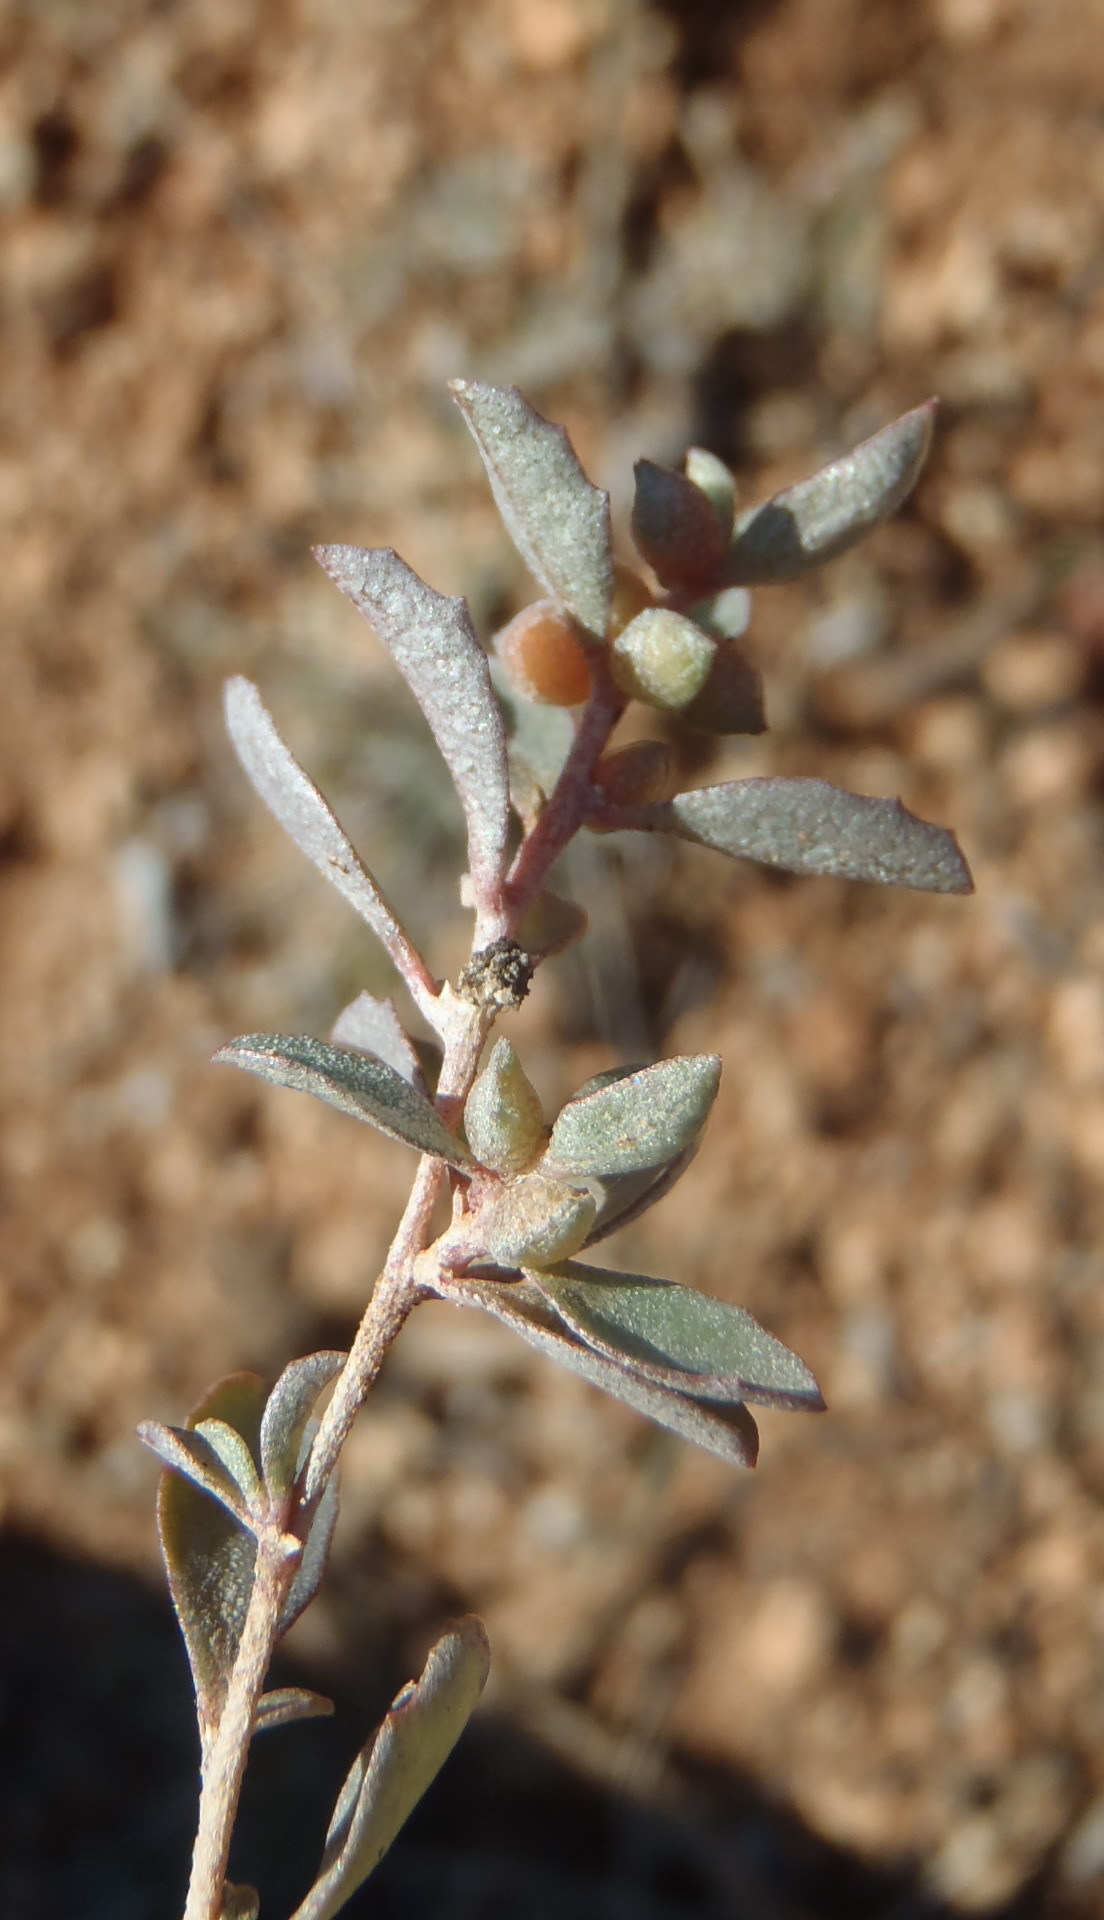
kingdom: Plantae
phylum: Tracheophyta
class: Magnoliopsida
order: Caryophyllales
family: Amaranthaceae
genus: Atriplex
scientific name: Atriplex semibaccata
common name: Australian saltbush
